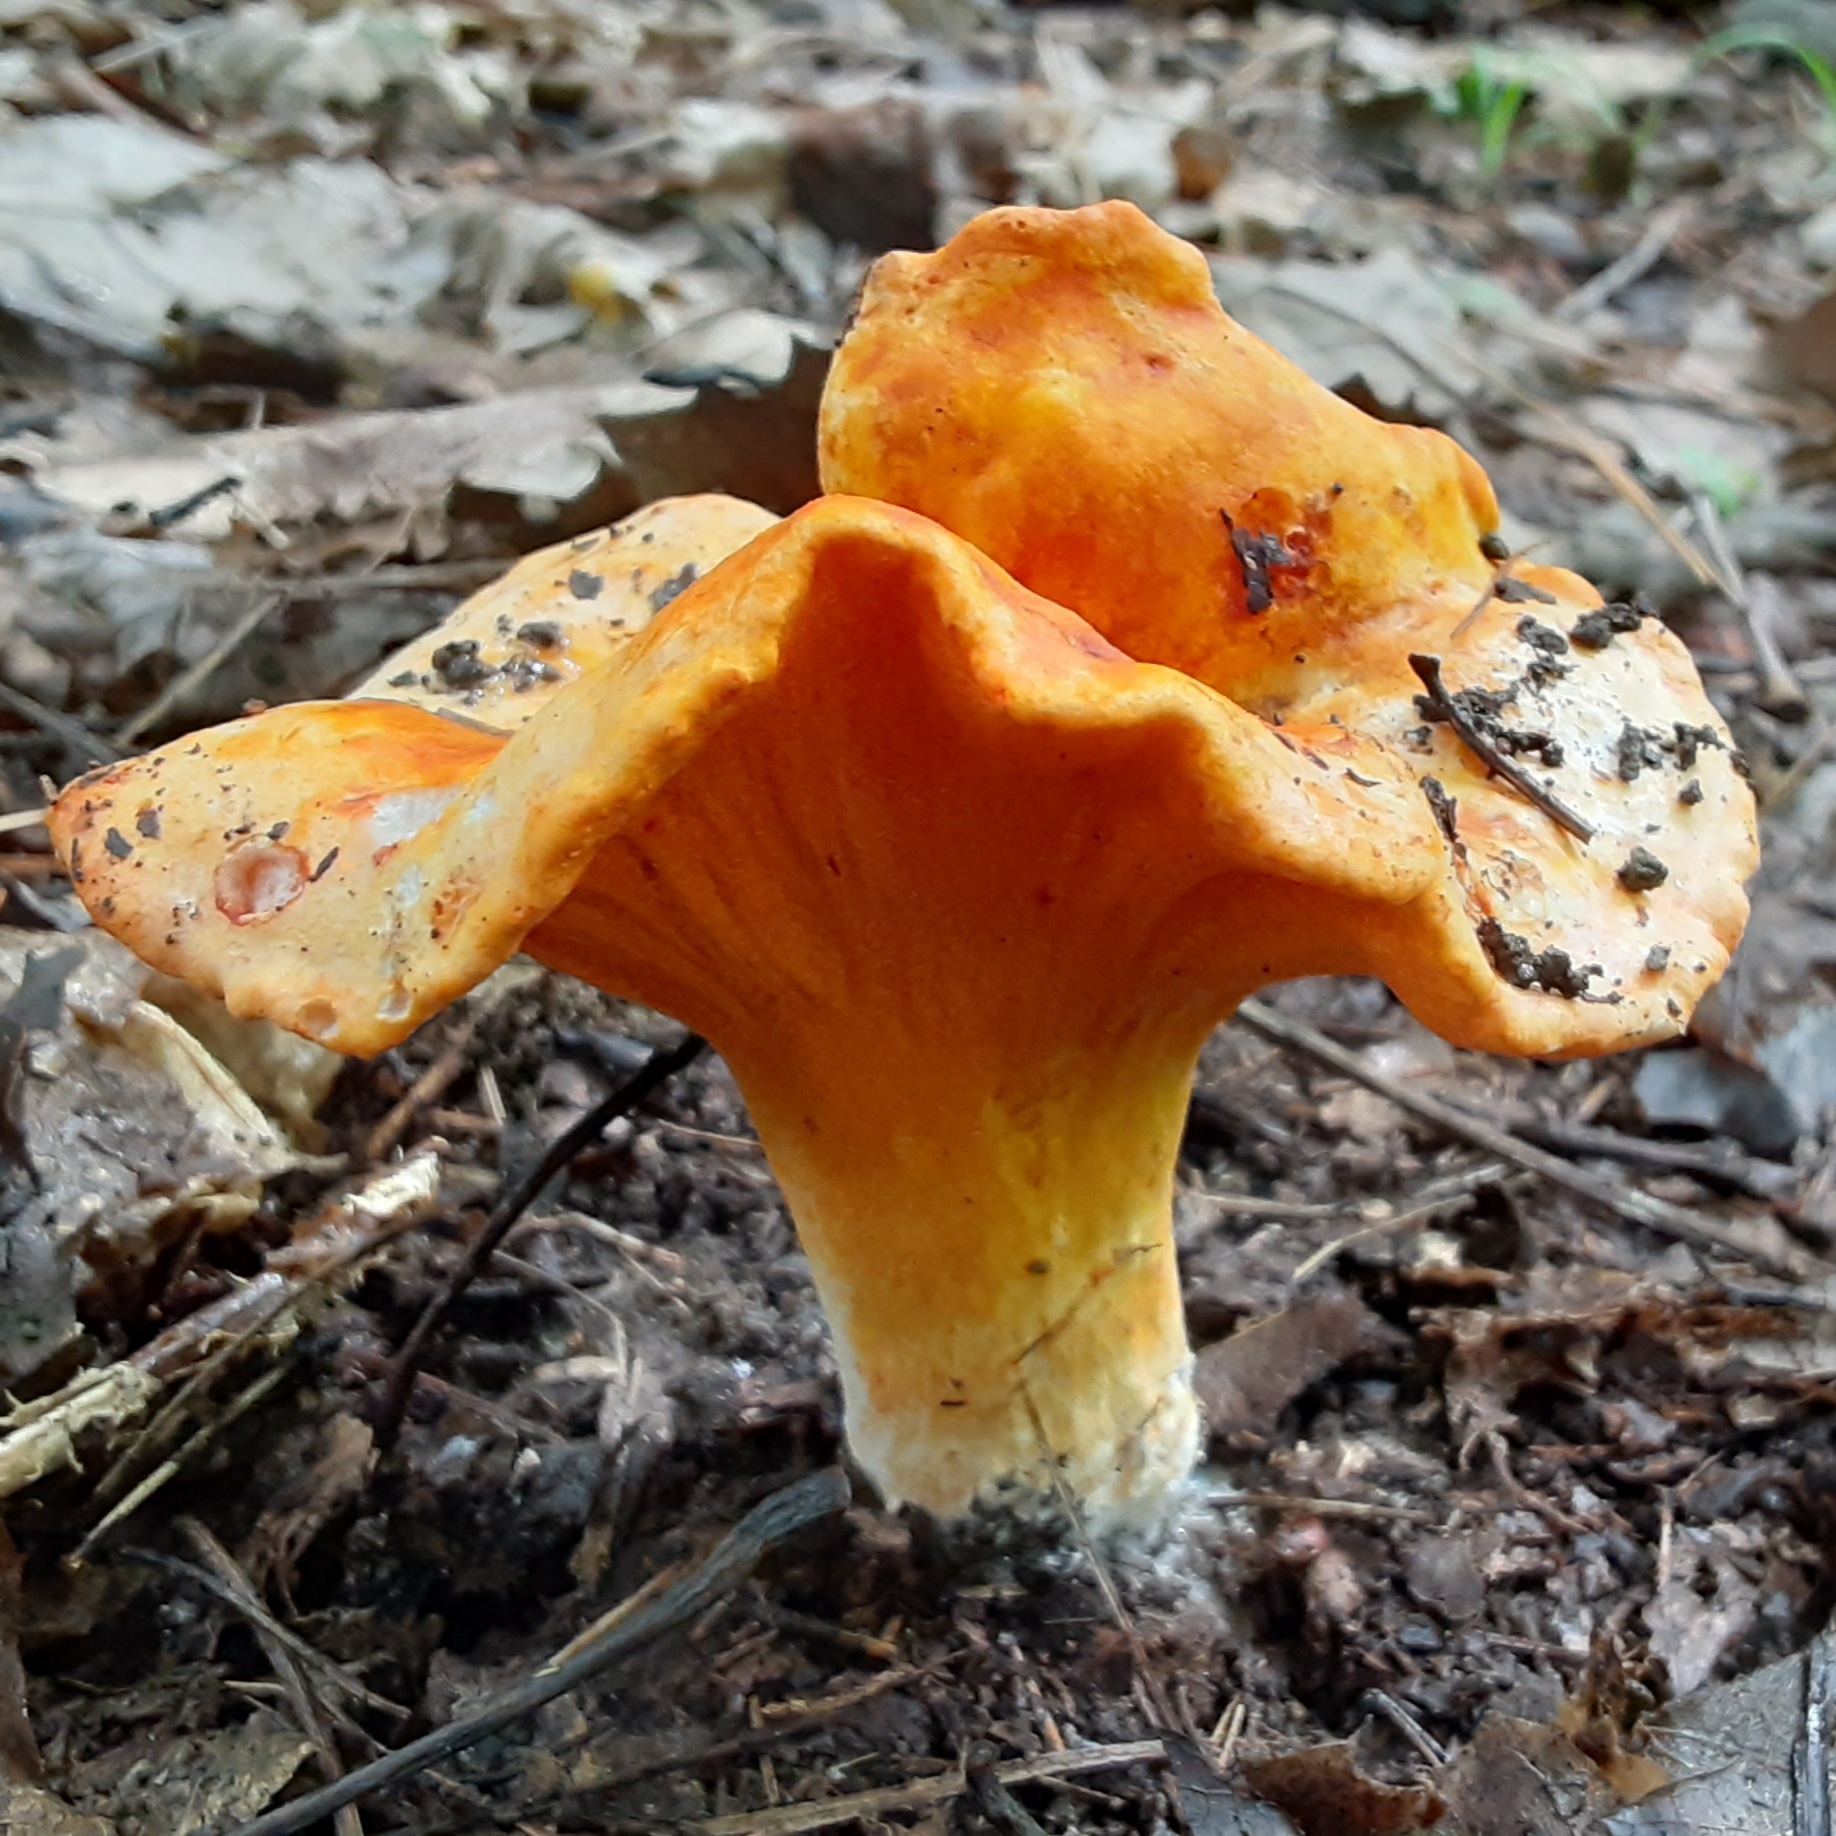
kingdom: Fungi
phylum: Ascomycota
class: Sordariomycetes
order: Hypocreales
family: Hypocreaceae
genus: Hypomyces
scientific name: Hypomyces lactifluorum
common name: Lobster mushroom
